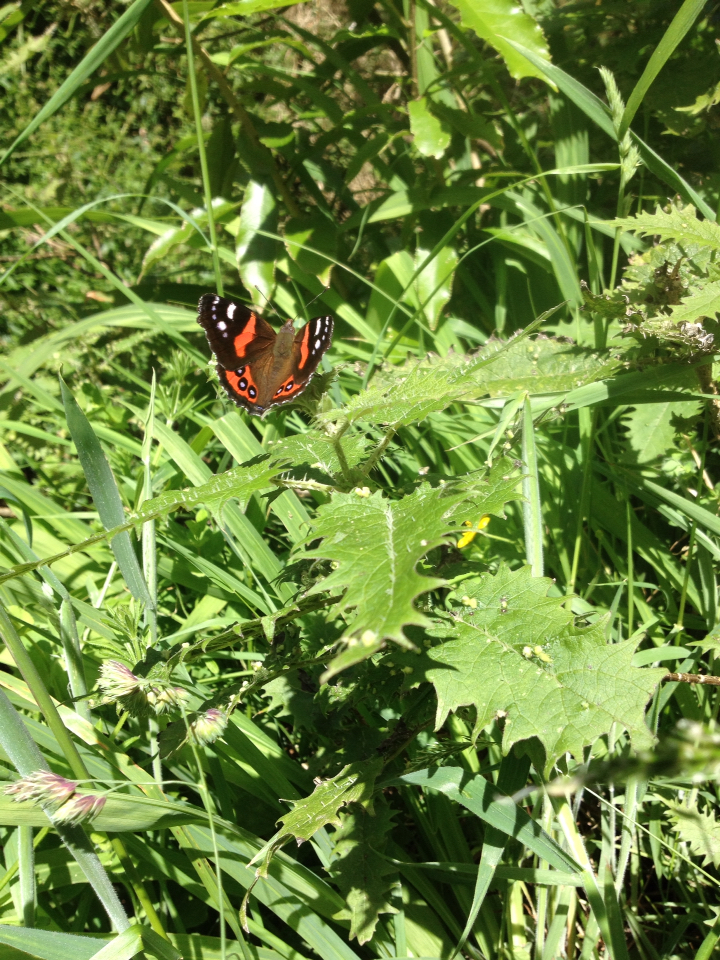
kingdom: Animalia
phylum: Arthropoda
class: Insecta
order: Lepidoptera
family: Nymphalidae
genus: Vanessa
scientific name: Vanessa gonerilla
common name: New zealand red admiral
